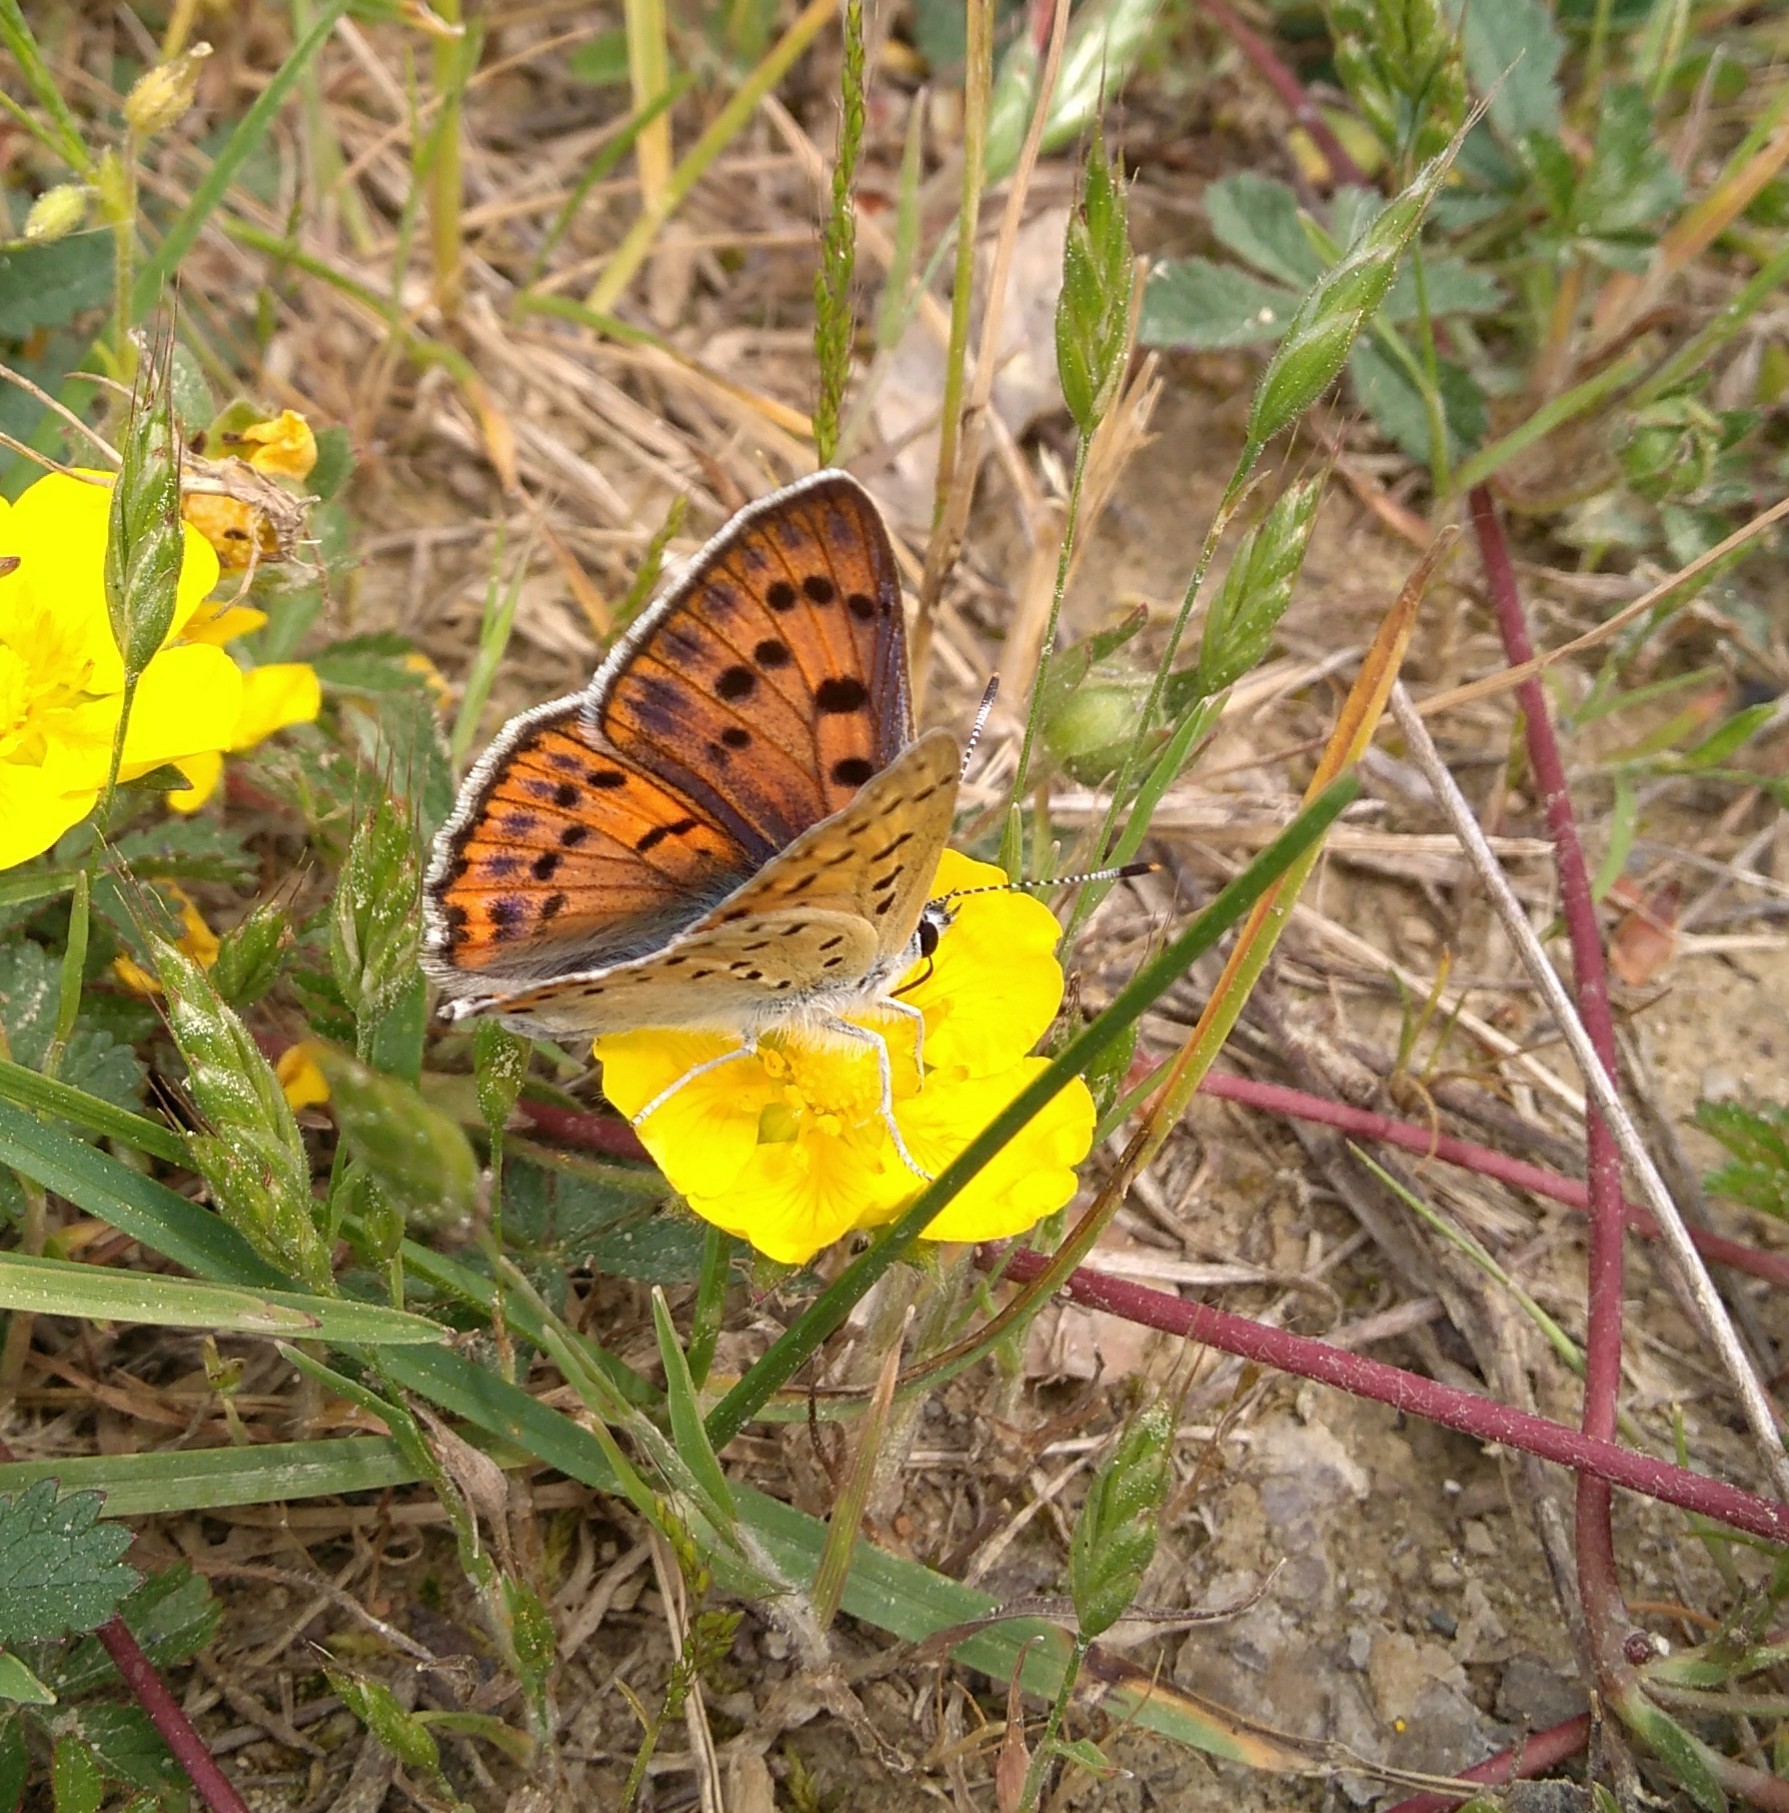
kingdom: Animalia
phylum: Arthropoda
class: Insecta
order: Lepidoptera
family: Lycaenidae
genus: Lycaena
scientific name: Lycaena alciphron
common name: Purple-shot copper
